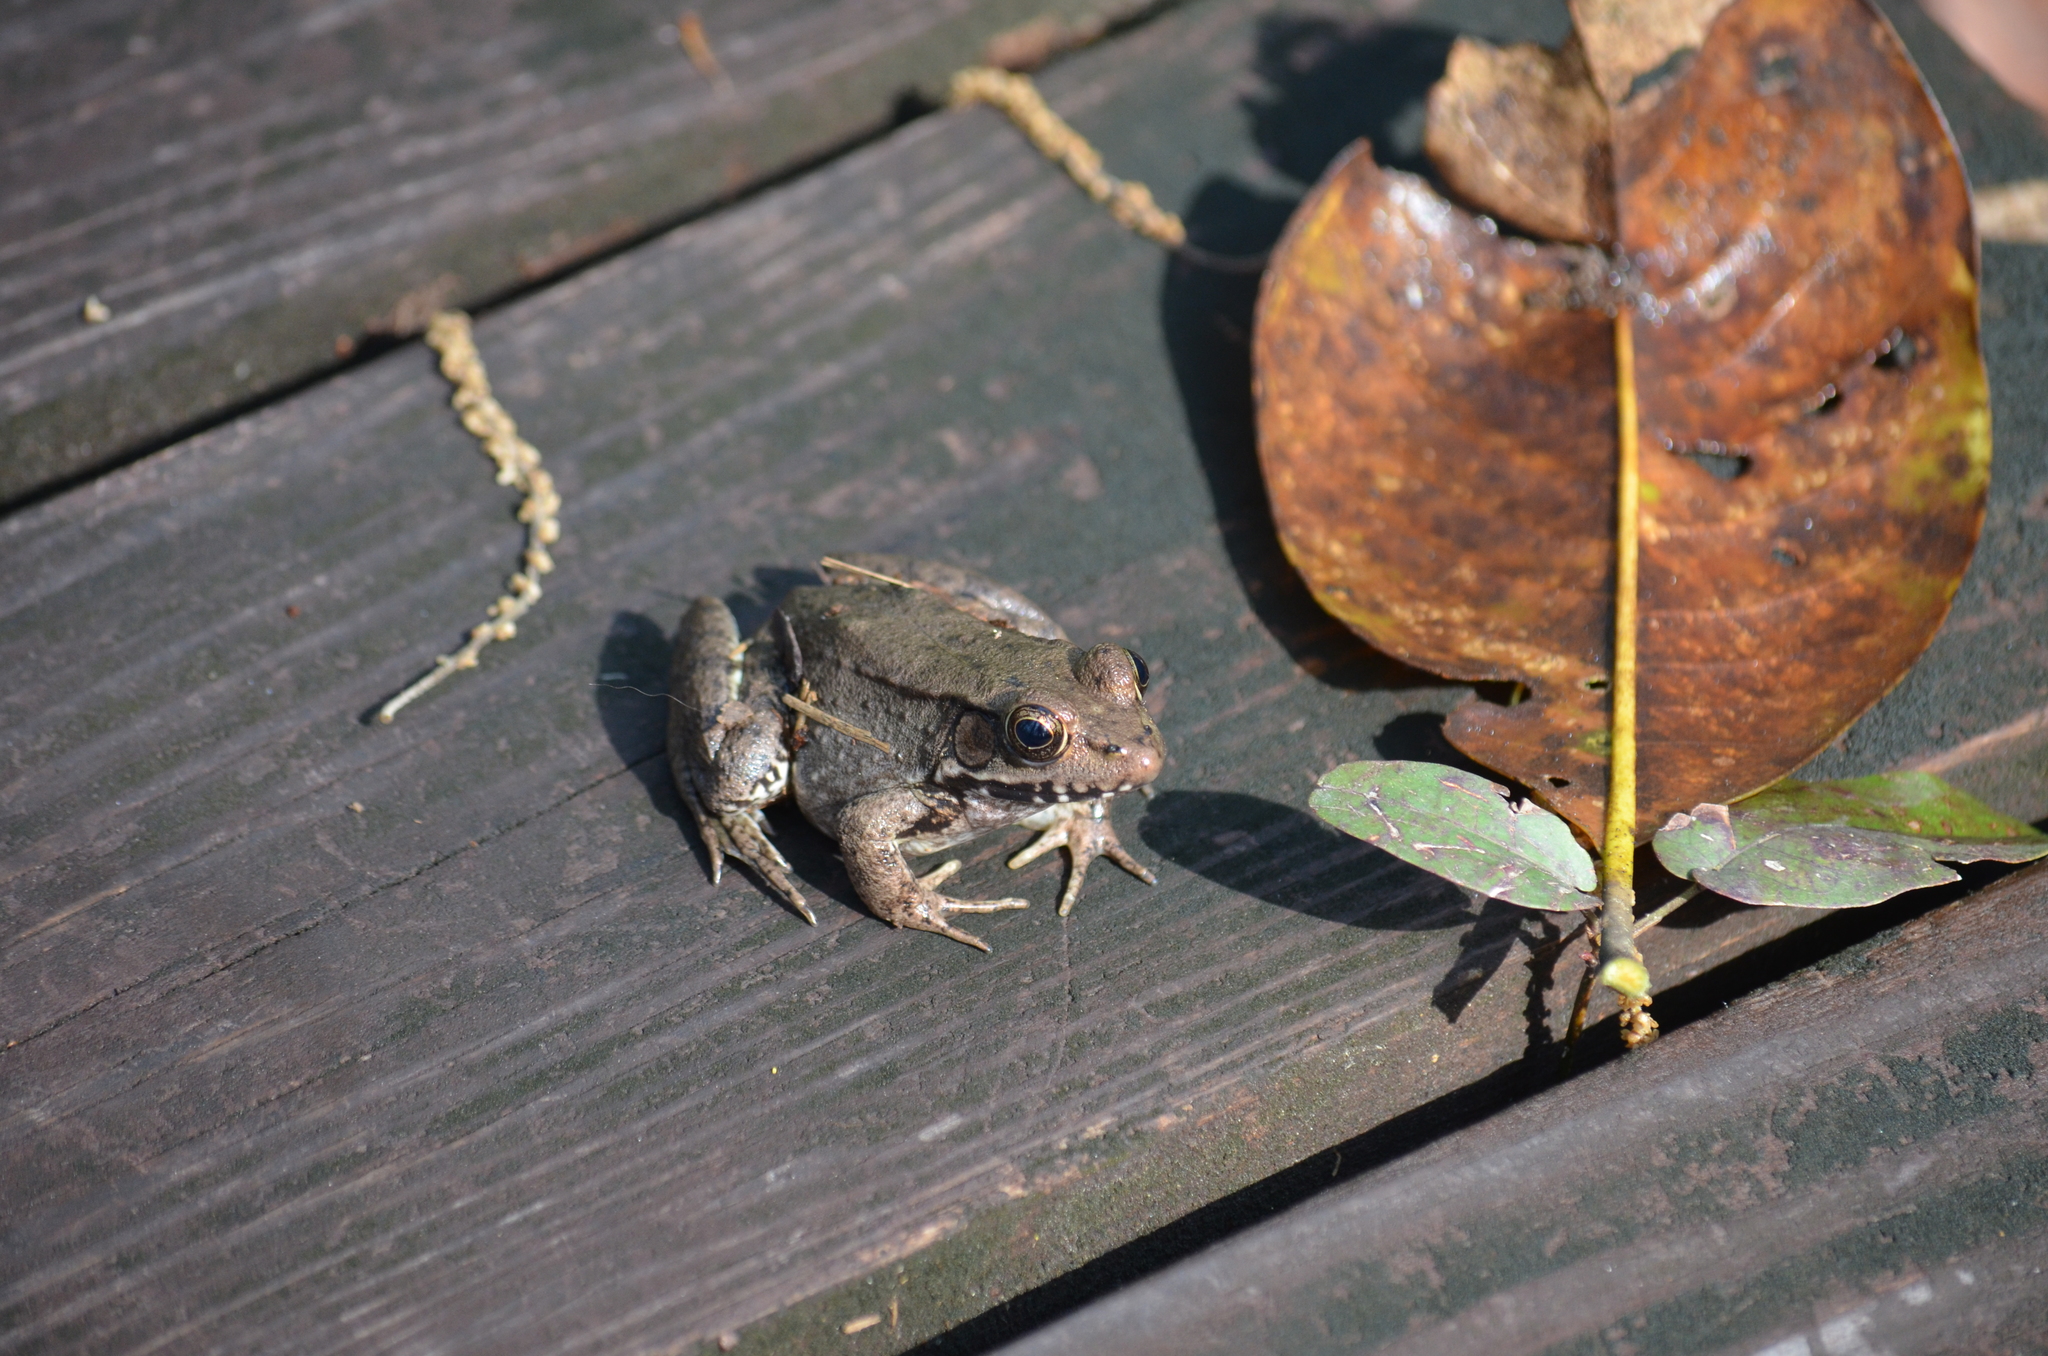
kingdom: Animalia
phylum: Chordata
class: Amphibia
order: Anura
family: Ranidae
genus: Lithobates
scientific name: Lithobates clamitans
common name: Green frog
